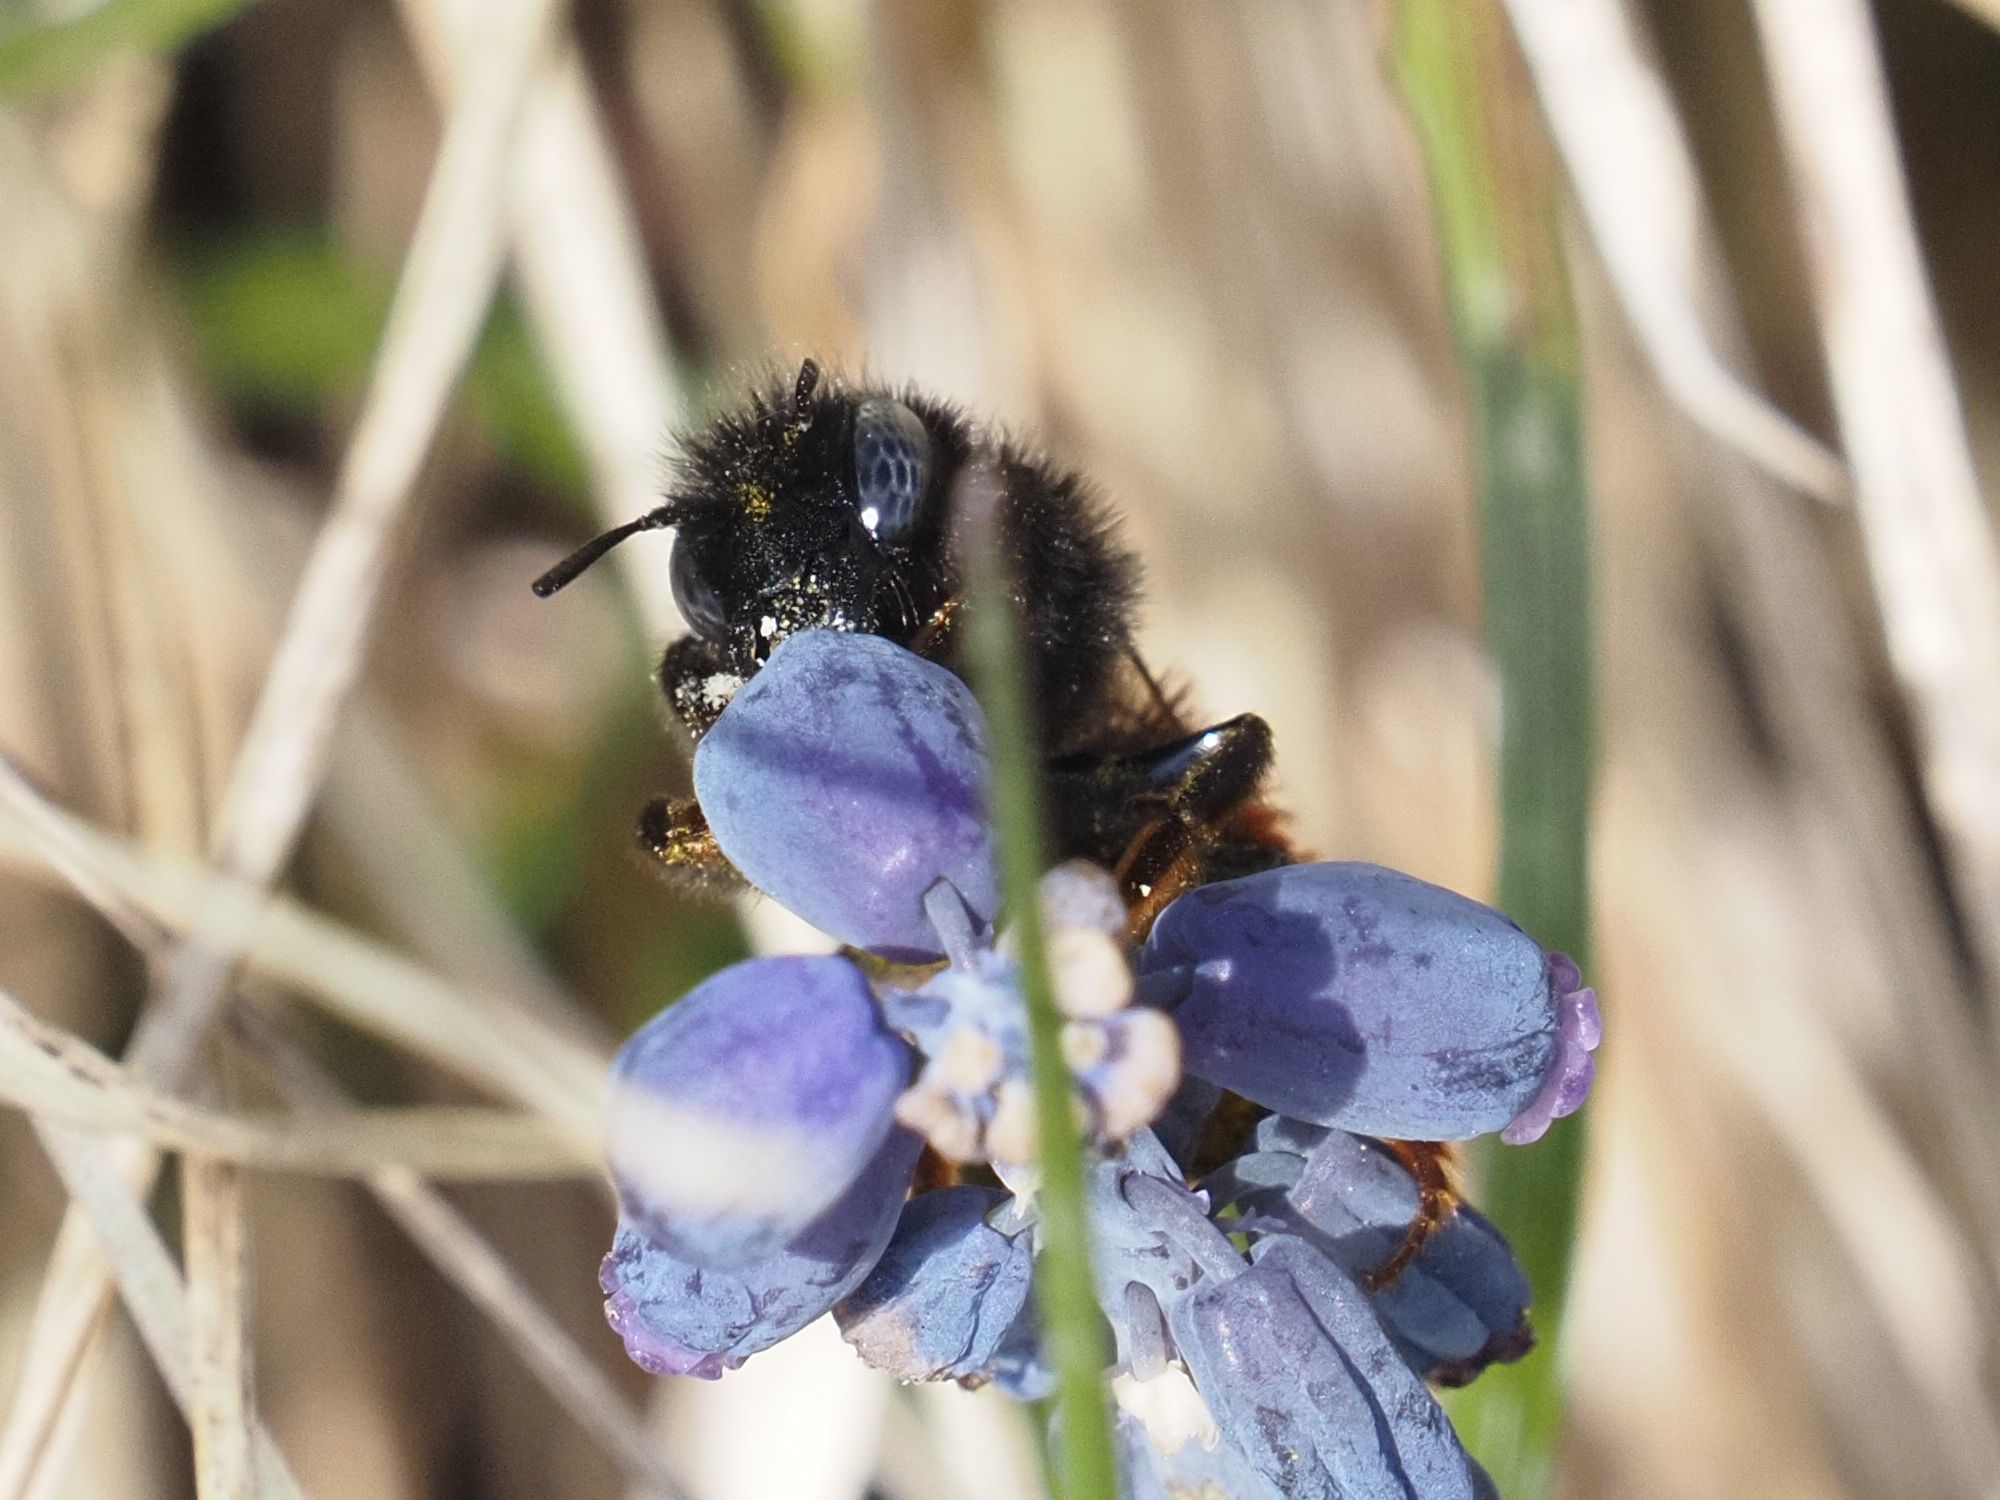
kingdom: Animalia
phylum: Arthropoda
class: Insecta
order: Hymenoptera
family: Megachilidae
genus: Osmia
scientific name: Osmia bicolor
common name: Red-tailed mason bee
